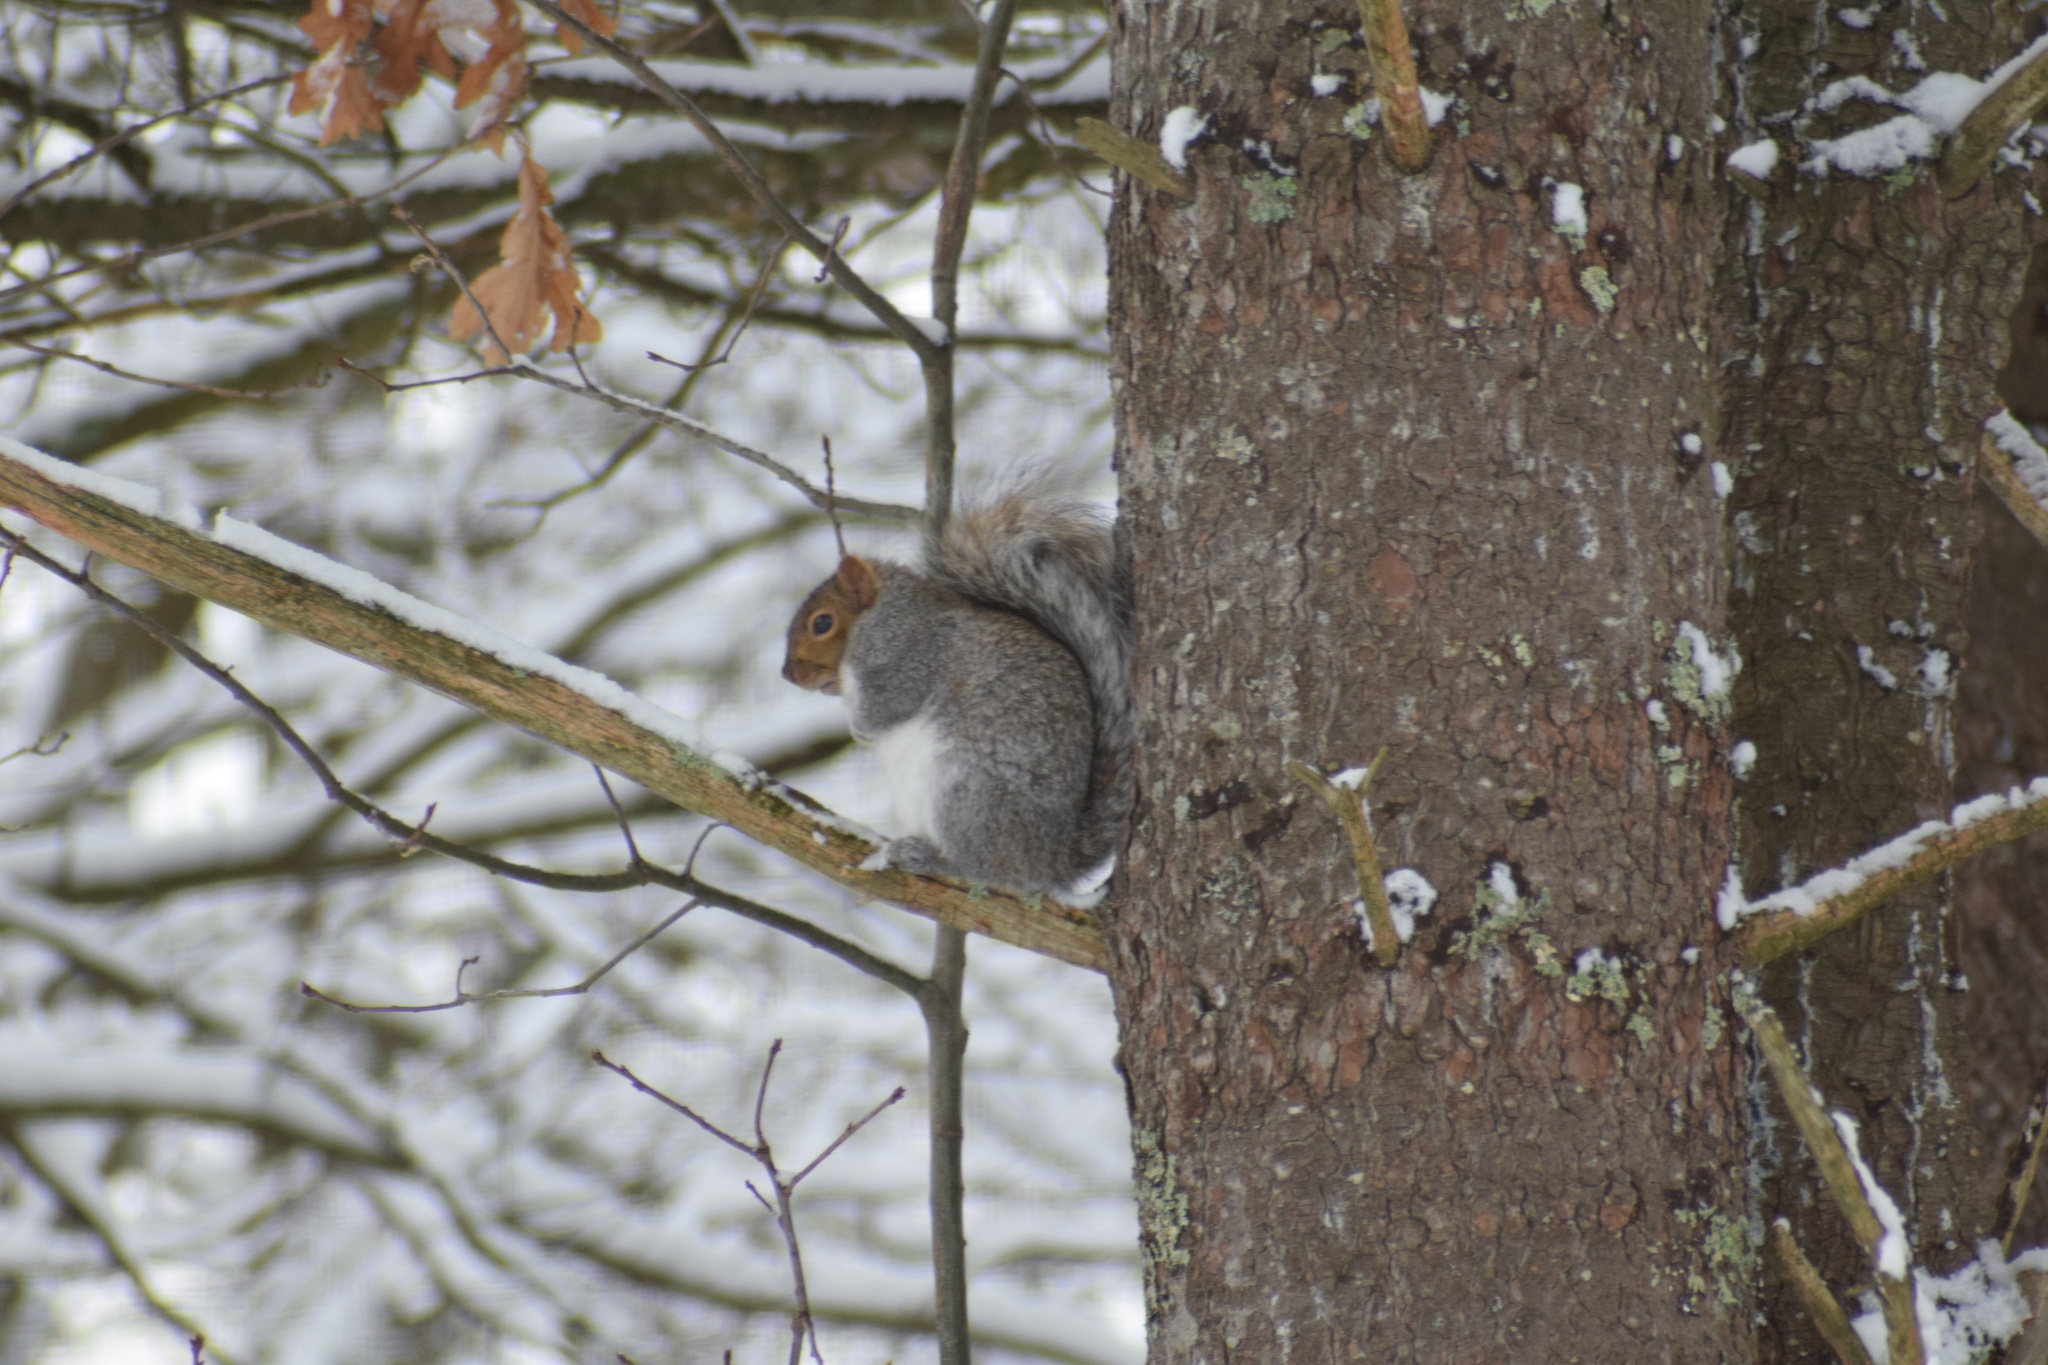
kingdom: Animalia
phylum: Chordata
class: Mammalia
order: Rodentia
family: Sciuridae
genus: Sciurus
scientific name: Sciurus carolinensis
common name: Eastern gray squirrel
